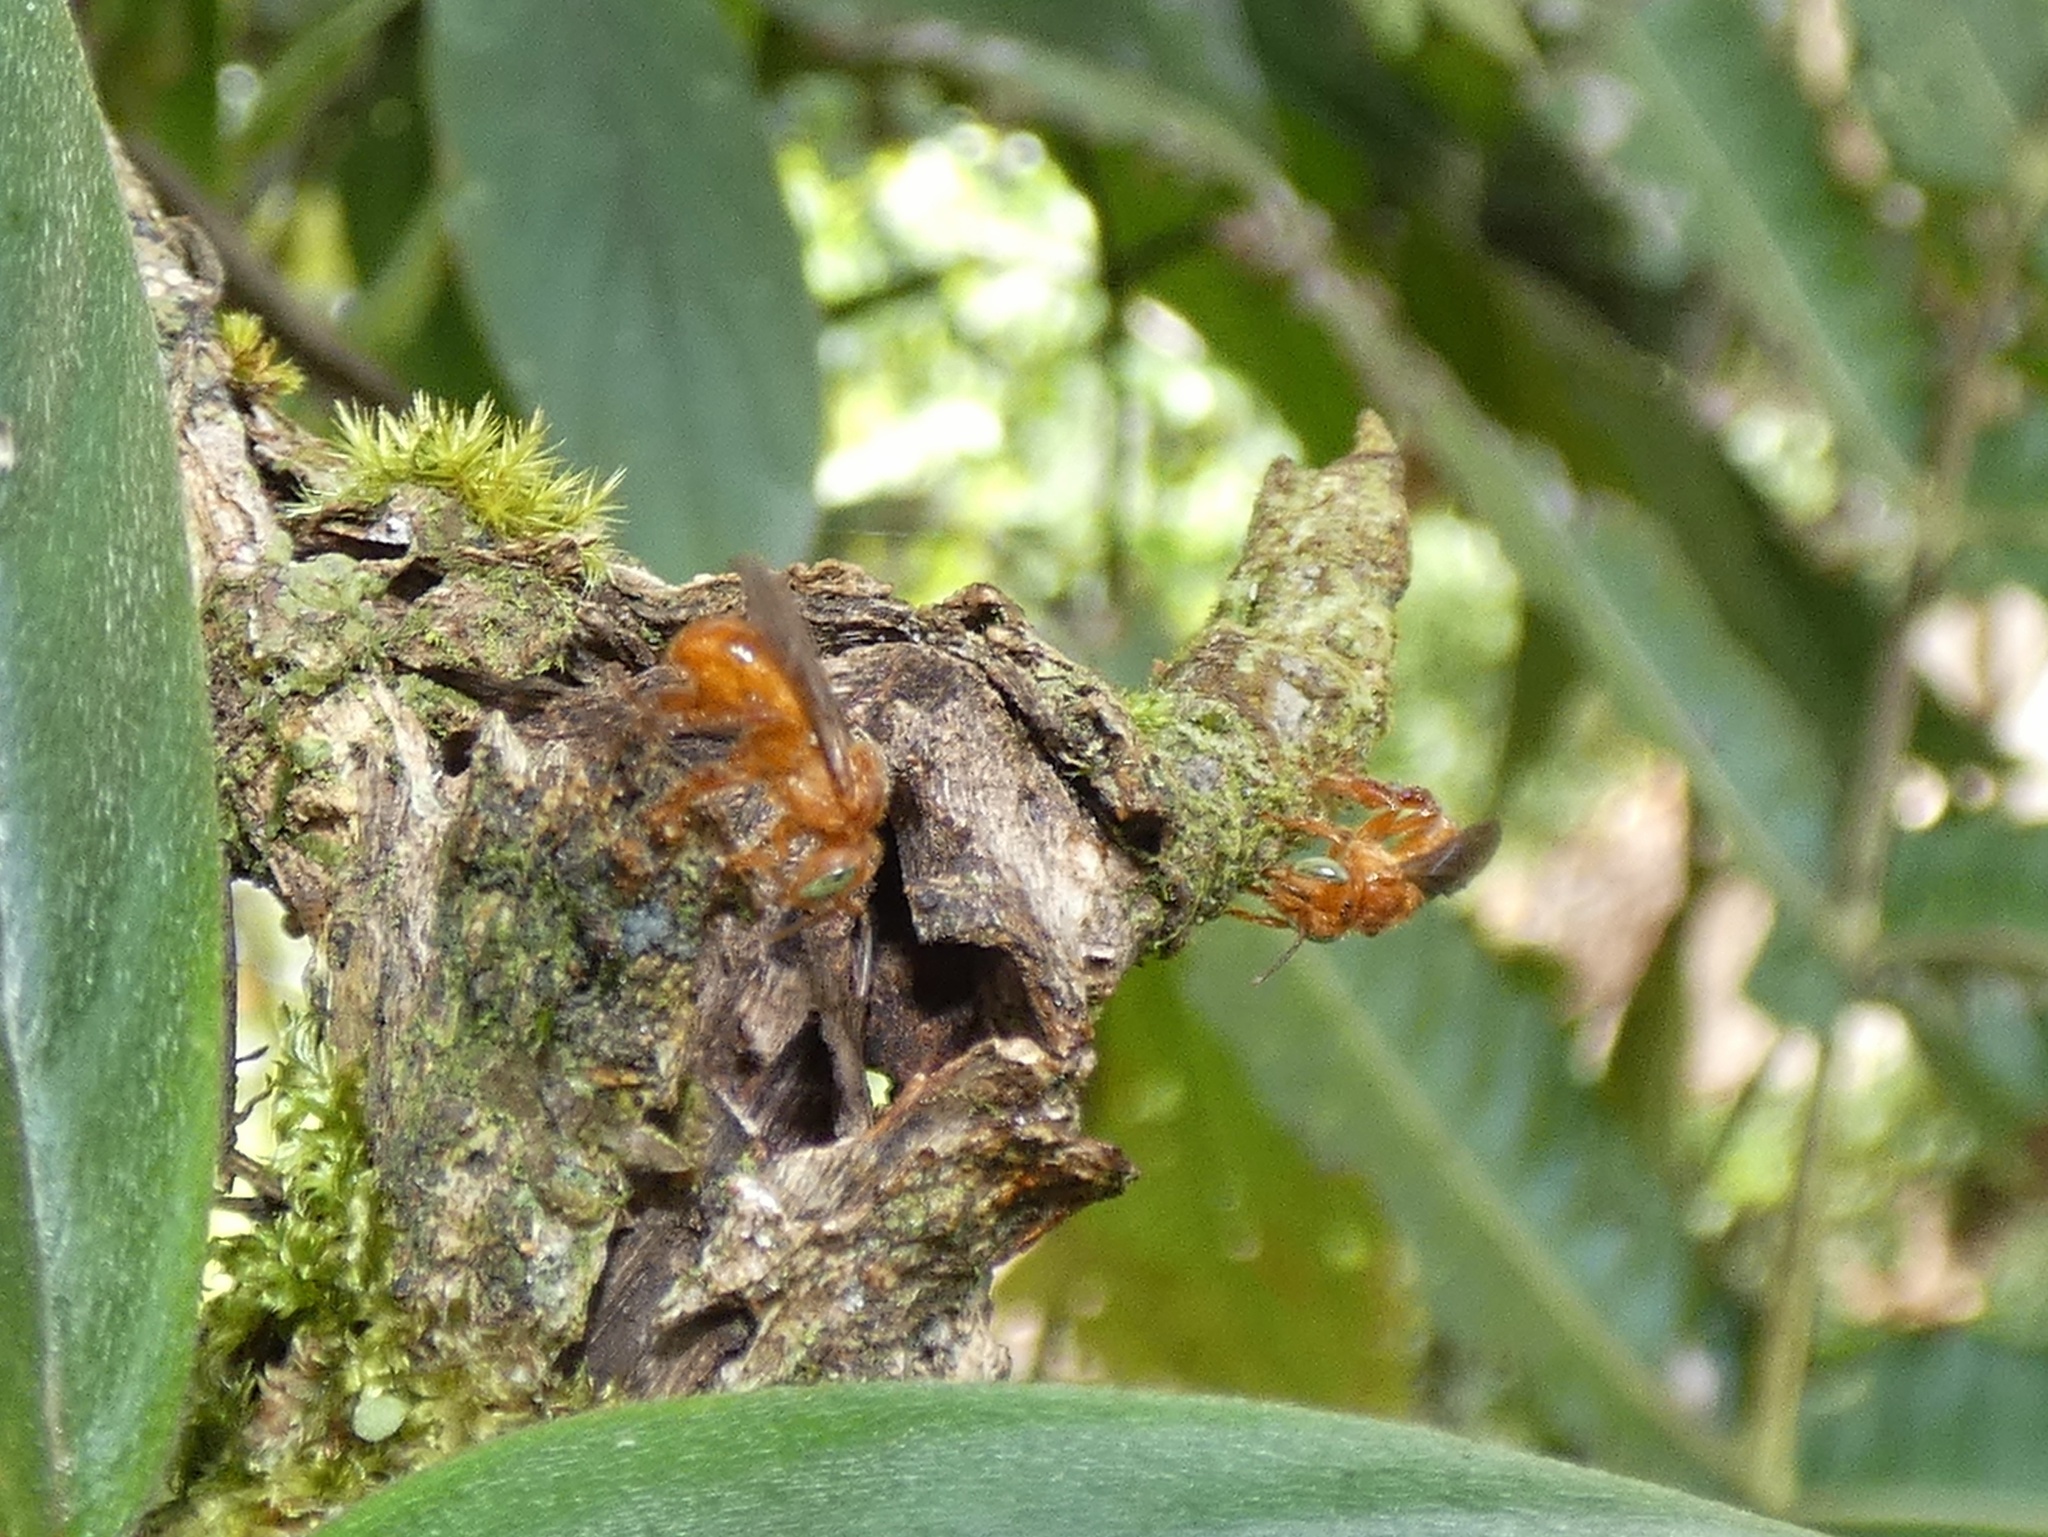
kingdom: Animalia
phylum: Arthropoda
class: Insecta
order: Hymenoptera
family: Apidae
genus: Trigona
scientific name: Trigona muzoensis
